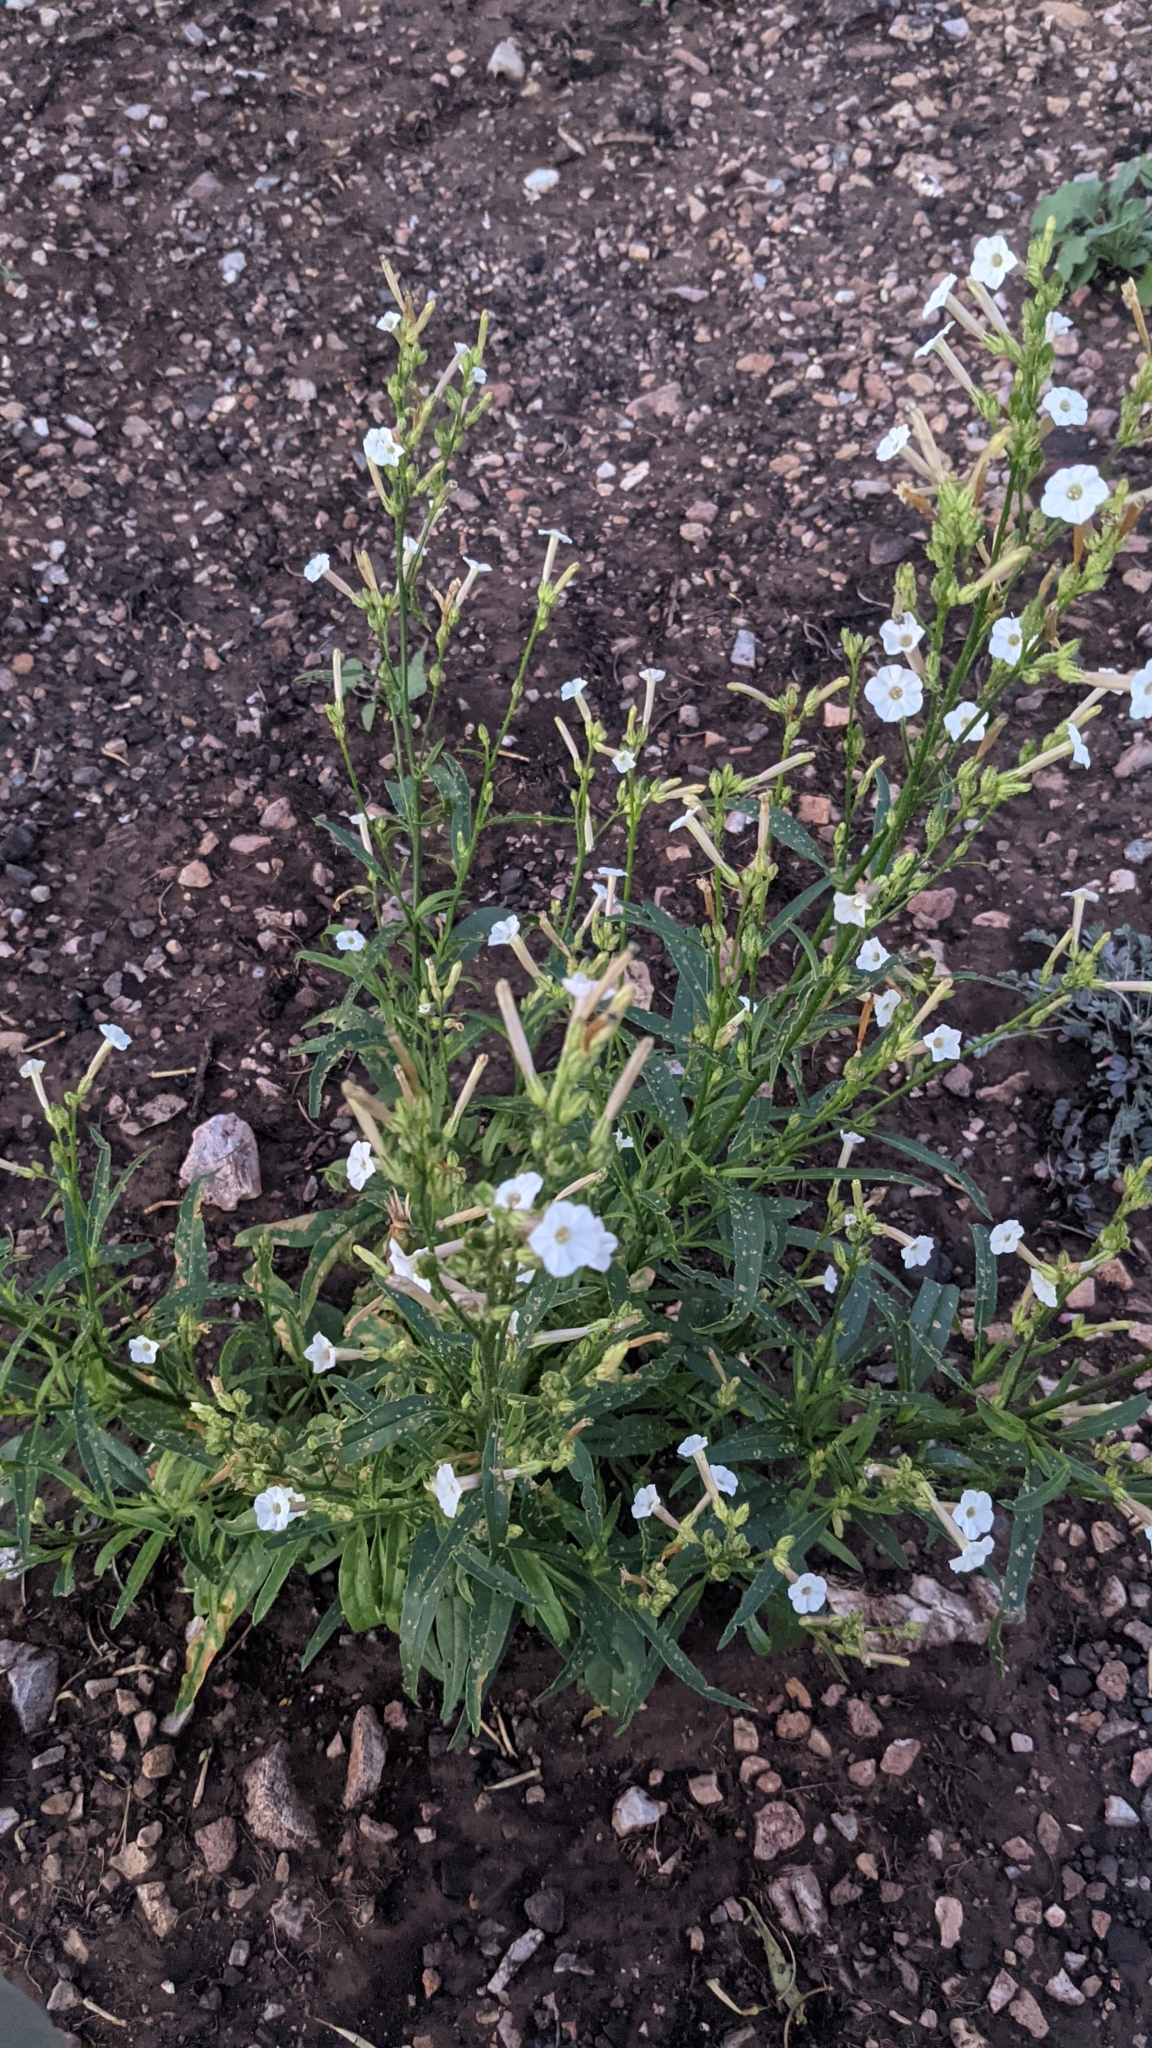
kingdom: Plantae
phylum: Tracheophyta
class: Magnoliopsida
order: Solanales
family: Solanaceae
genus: Nicotiana
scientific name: Nicotiana attenuata
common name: Coyote tobacco
